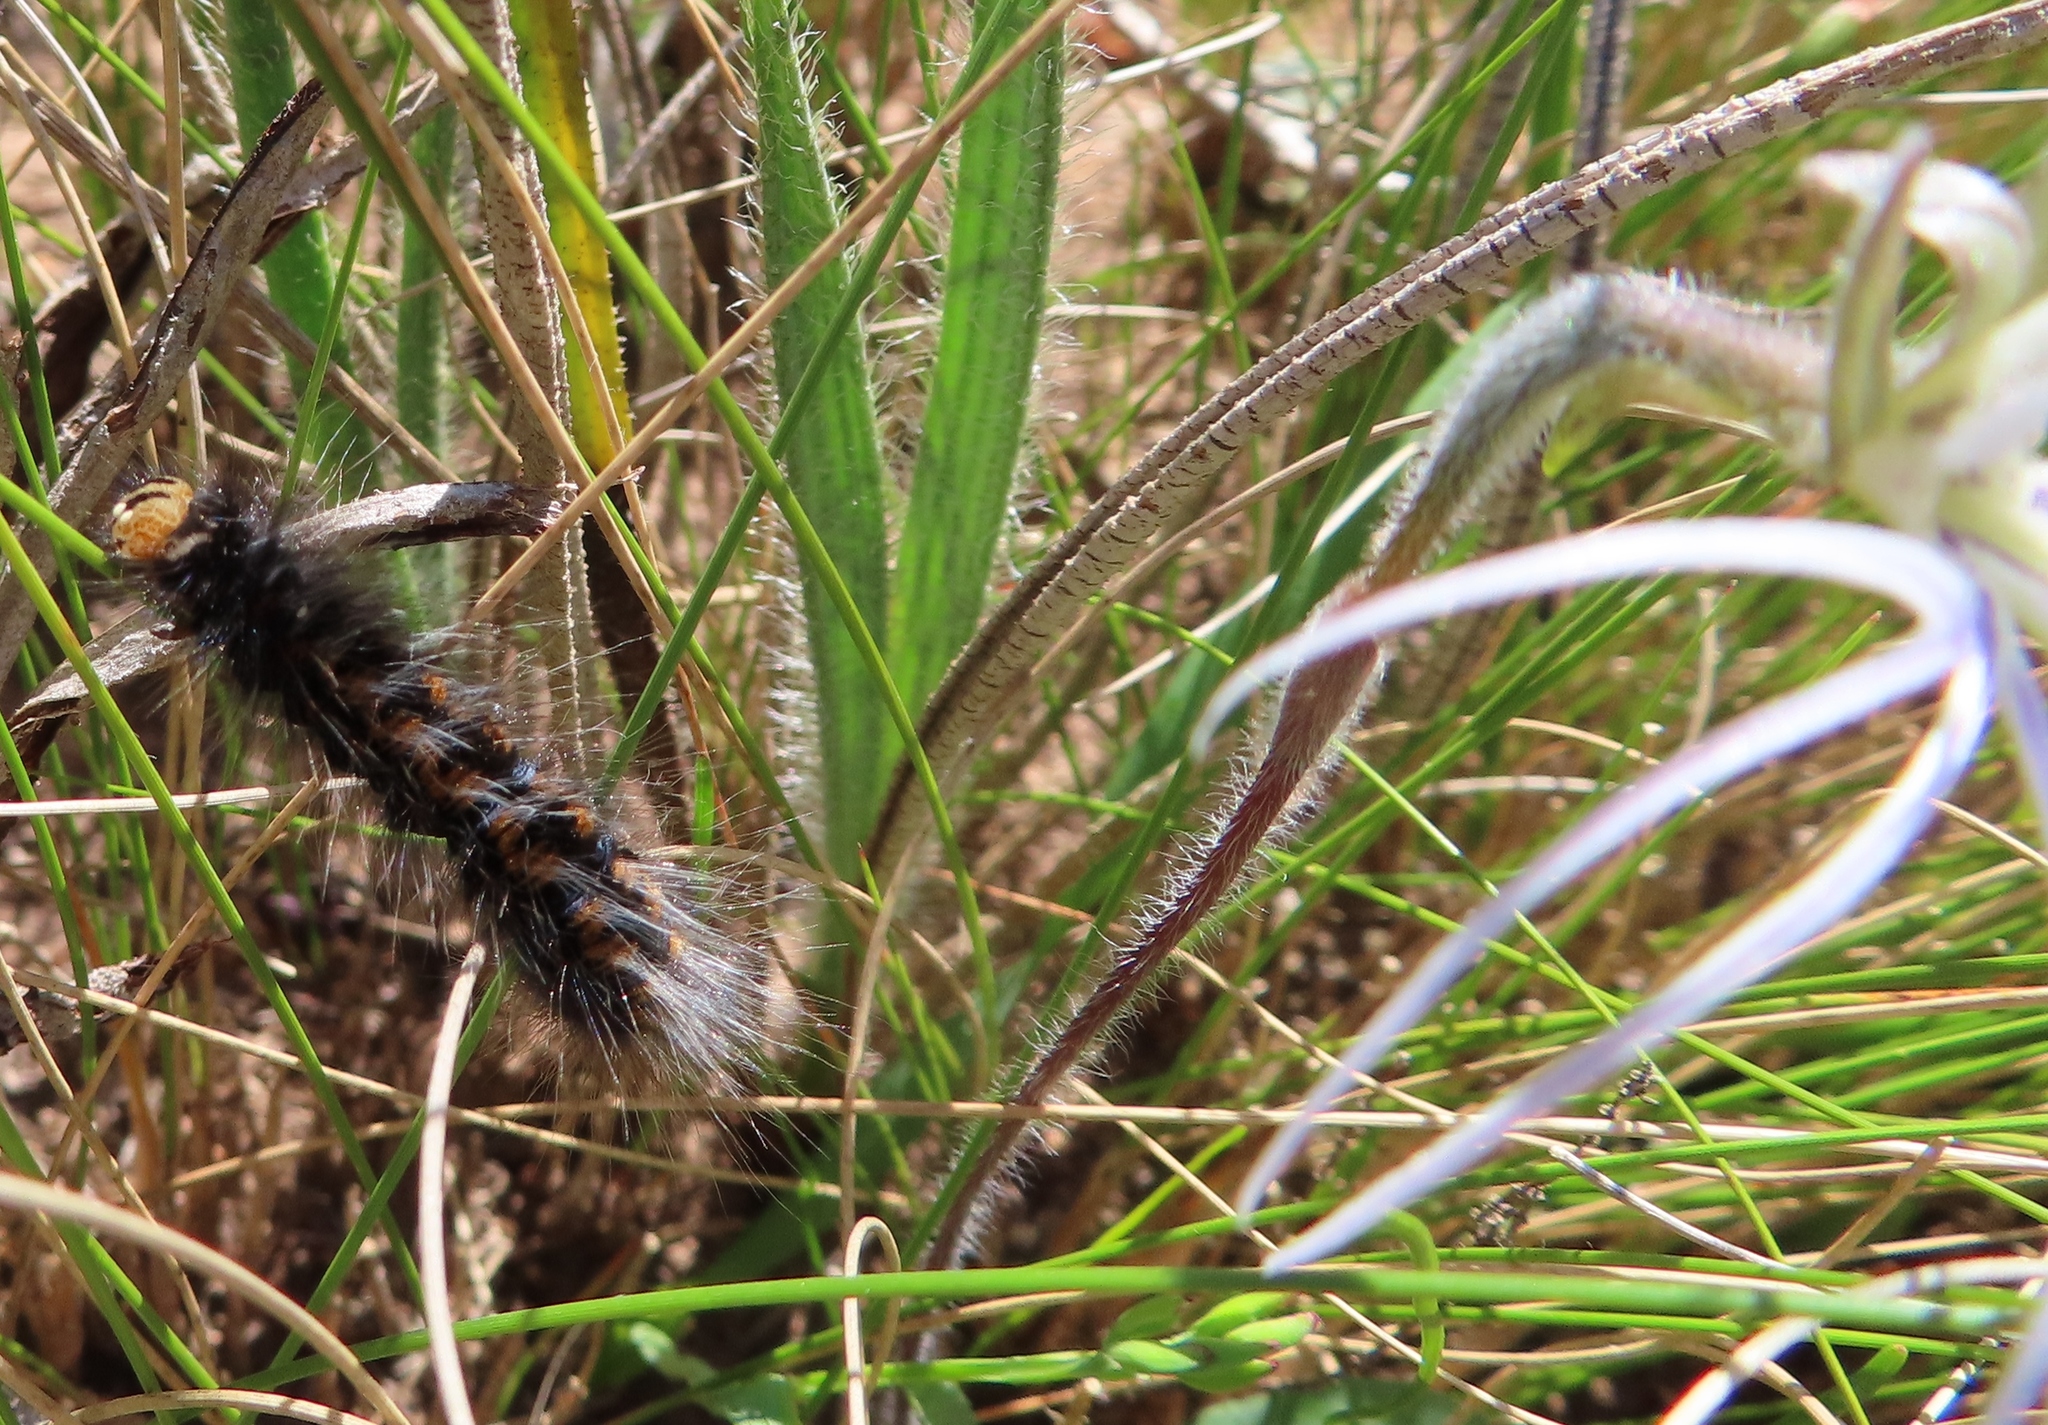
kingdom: Animalia
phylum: Arthropoda
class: Insecta
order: Lepidoptera
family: Lasiocampidae
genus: Mesocelis
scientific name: Mesocelis monticola
